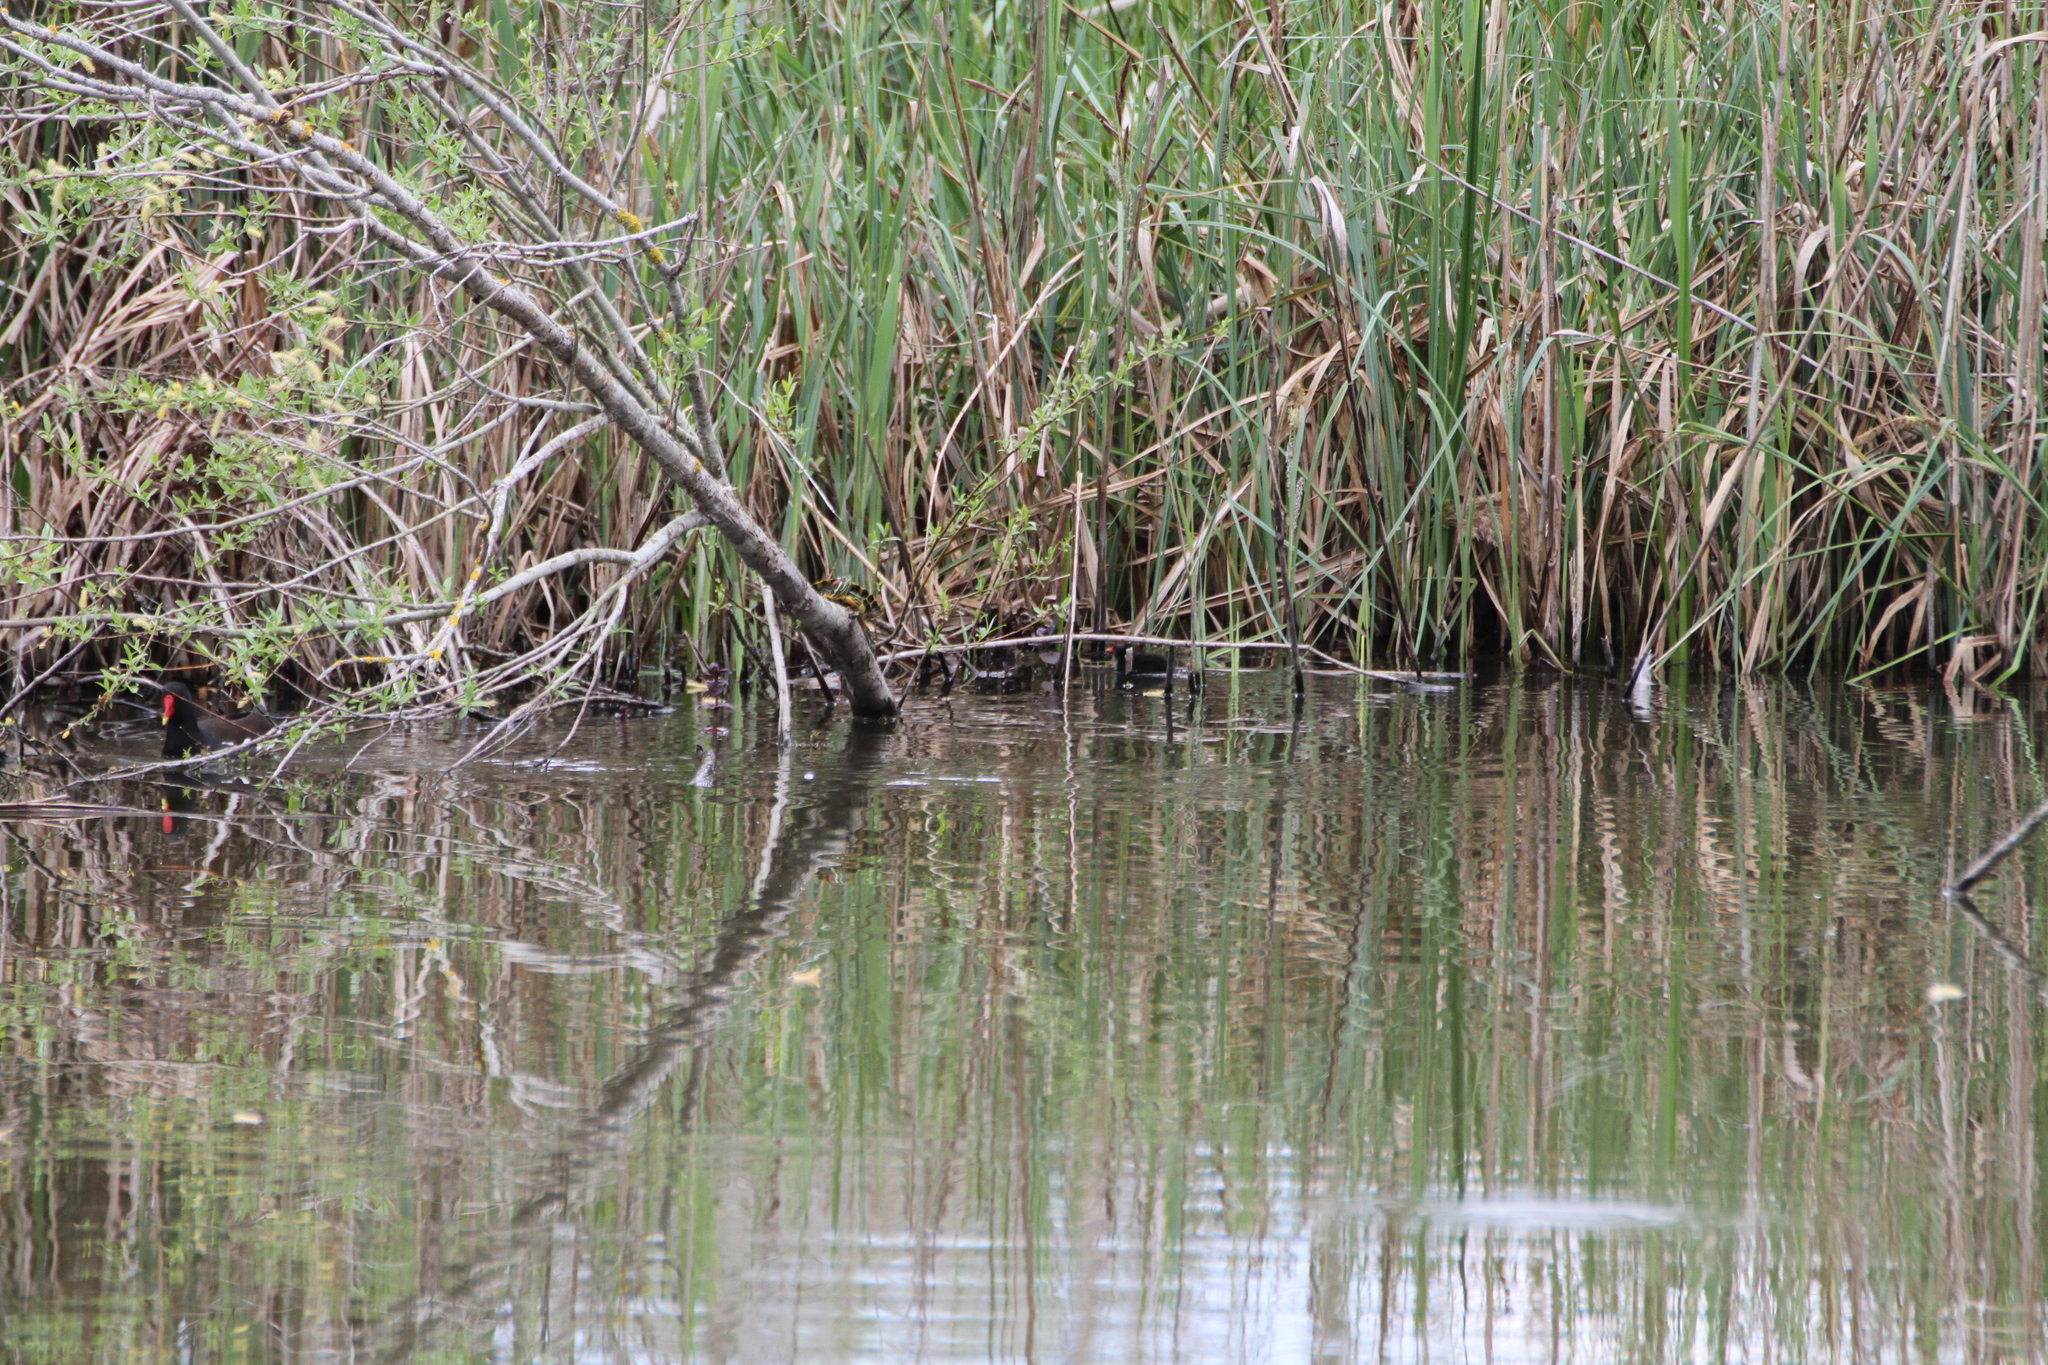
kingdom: Animalia
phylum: Chordata
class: Testudines
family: Emydidae
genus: Trachemys
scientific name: Trachemys scripta
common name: Slider
